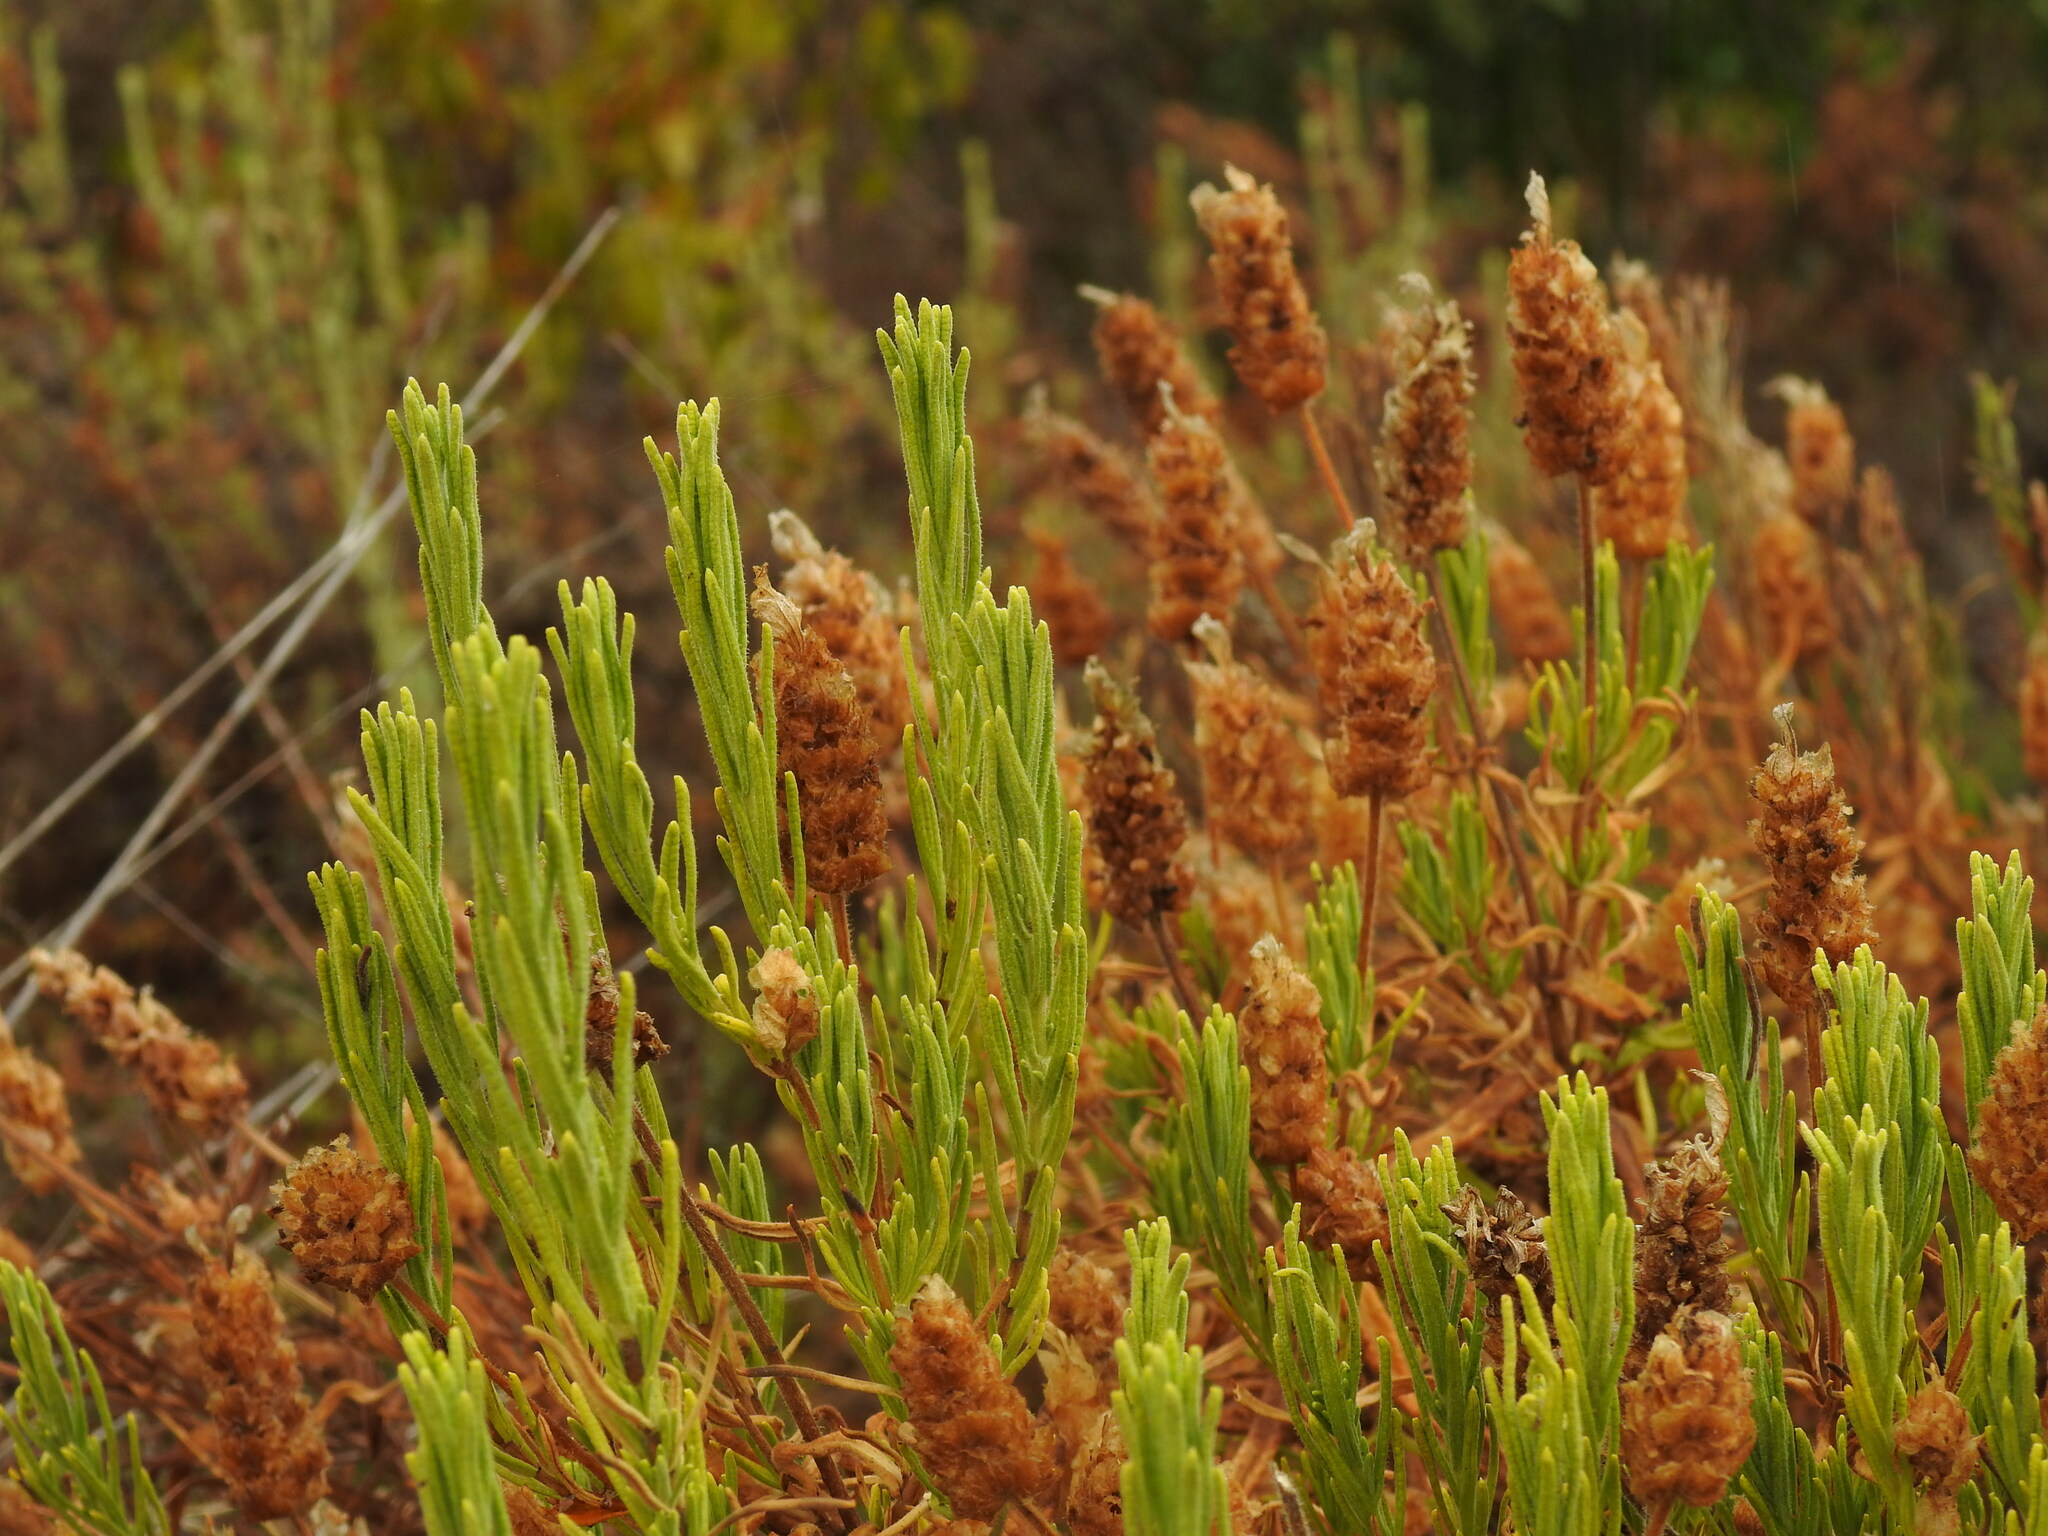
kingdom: Plantae
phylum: Tracheophyta
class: Magnoliopsida
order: Lamiales
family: Lamiaceae
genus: Lavandula
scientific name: Lavandula viridis
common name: Green spanish lavender
